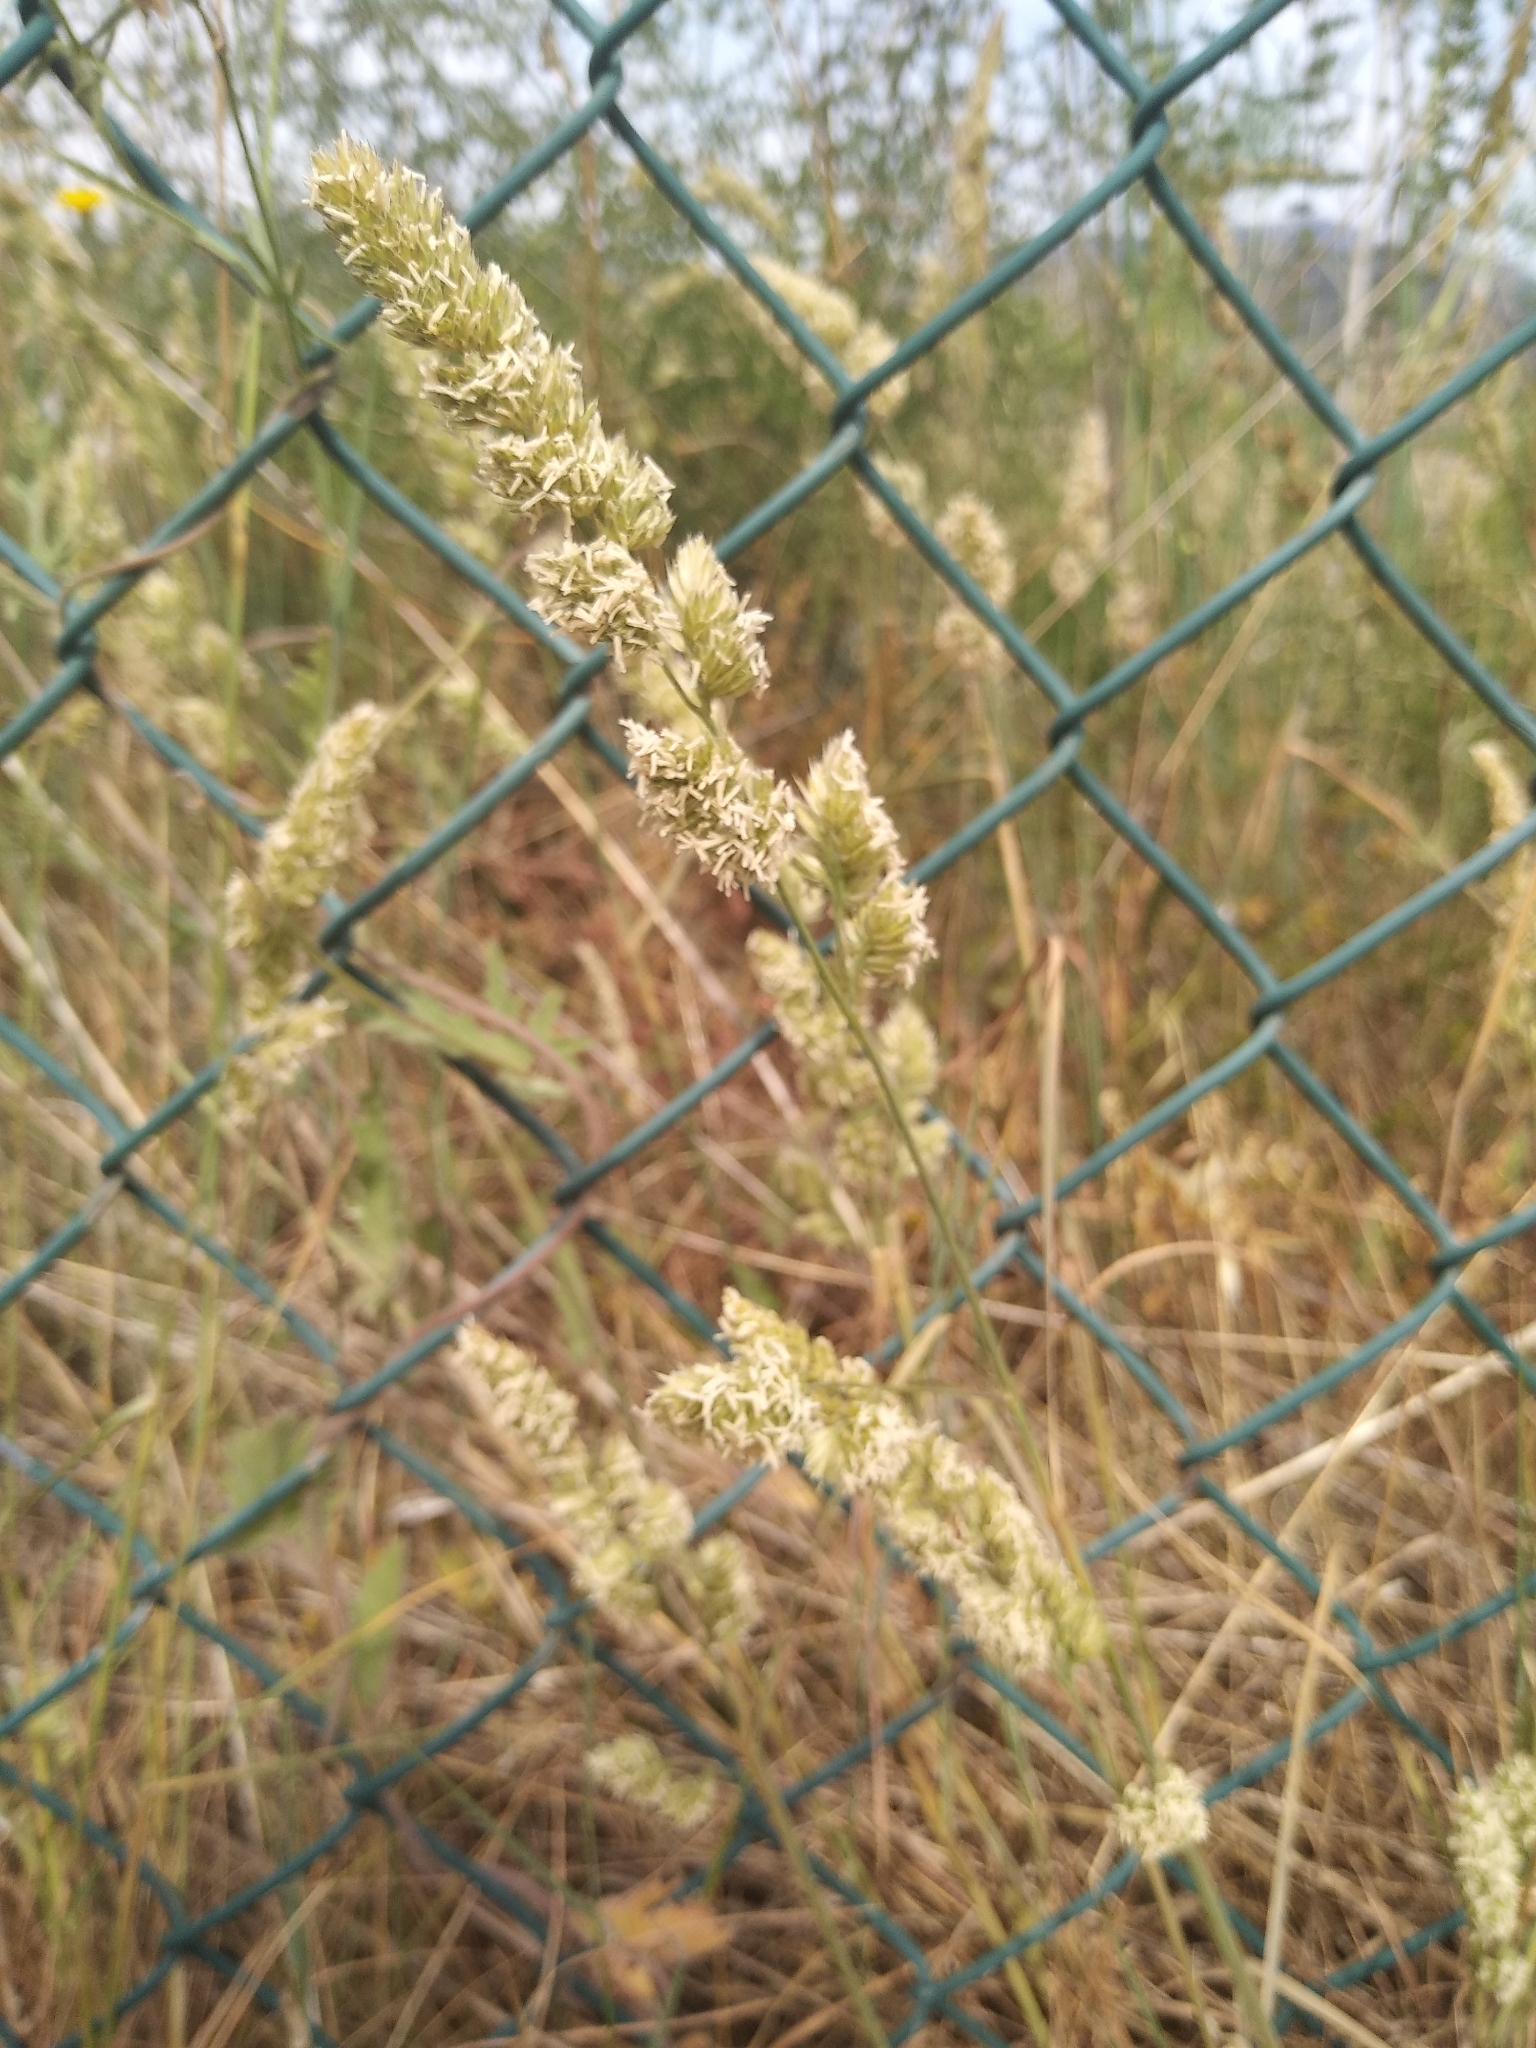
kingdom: Plantae
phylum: Tracheophyta
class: Liliopsida
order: Poales
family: Poaceae
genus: Dactylis
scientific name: Dactylis glomerata
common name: Orchardgrass
